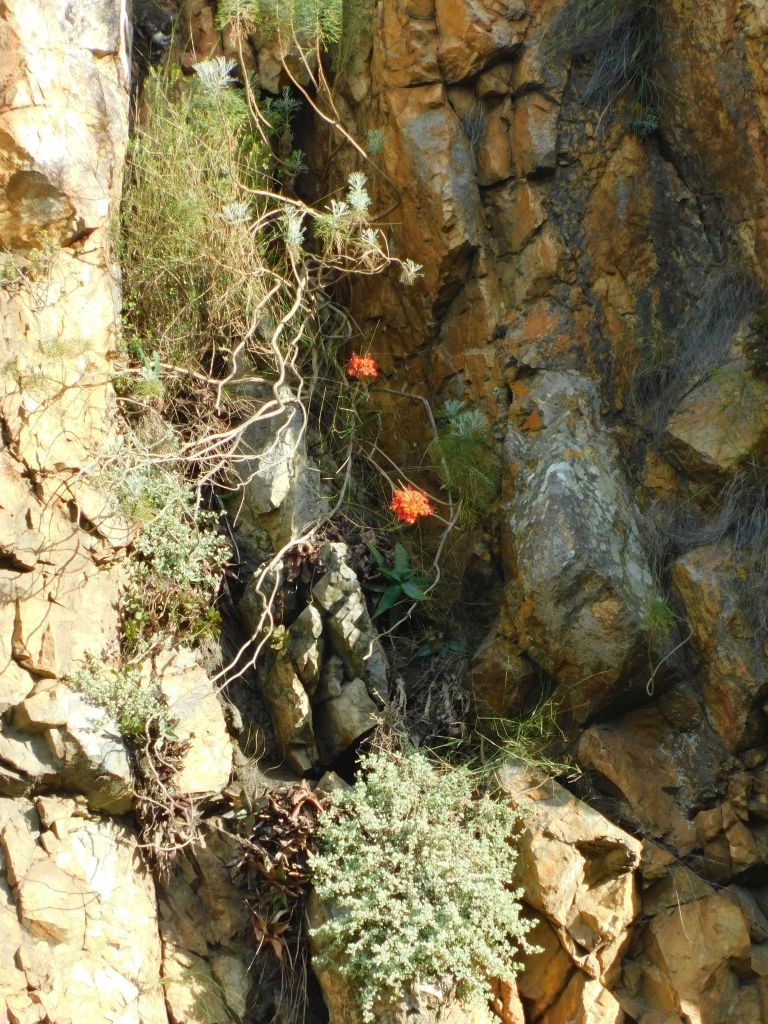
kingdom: Plantae
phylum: Tracheophyta
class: Liliopsida
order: Asparagales
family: Amaryllidaceae
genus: Nerine
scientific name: Nerine sarniensis
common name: Guernsey-lily
